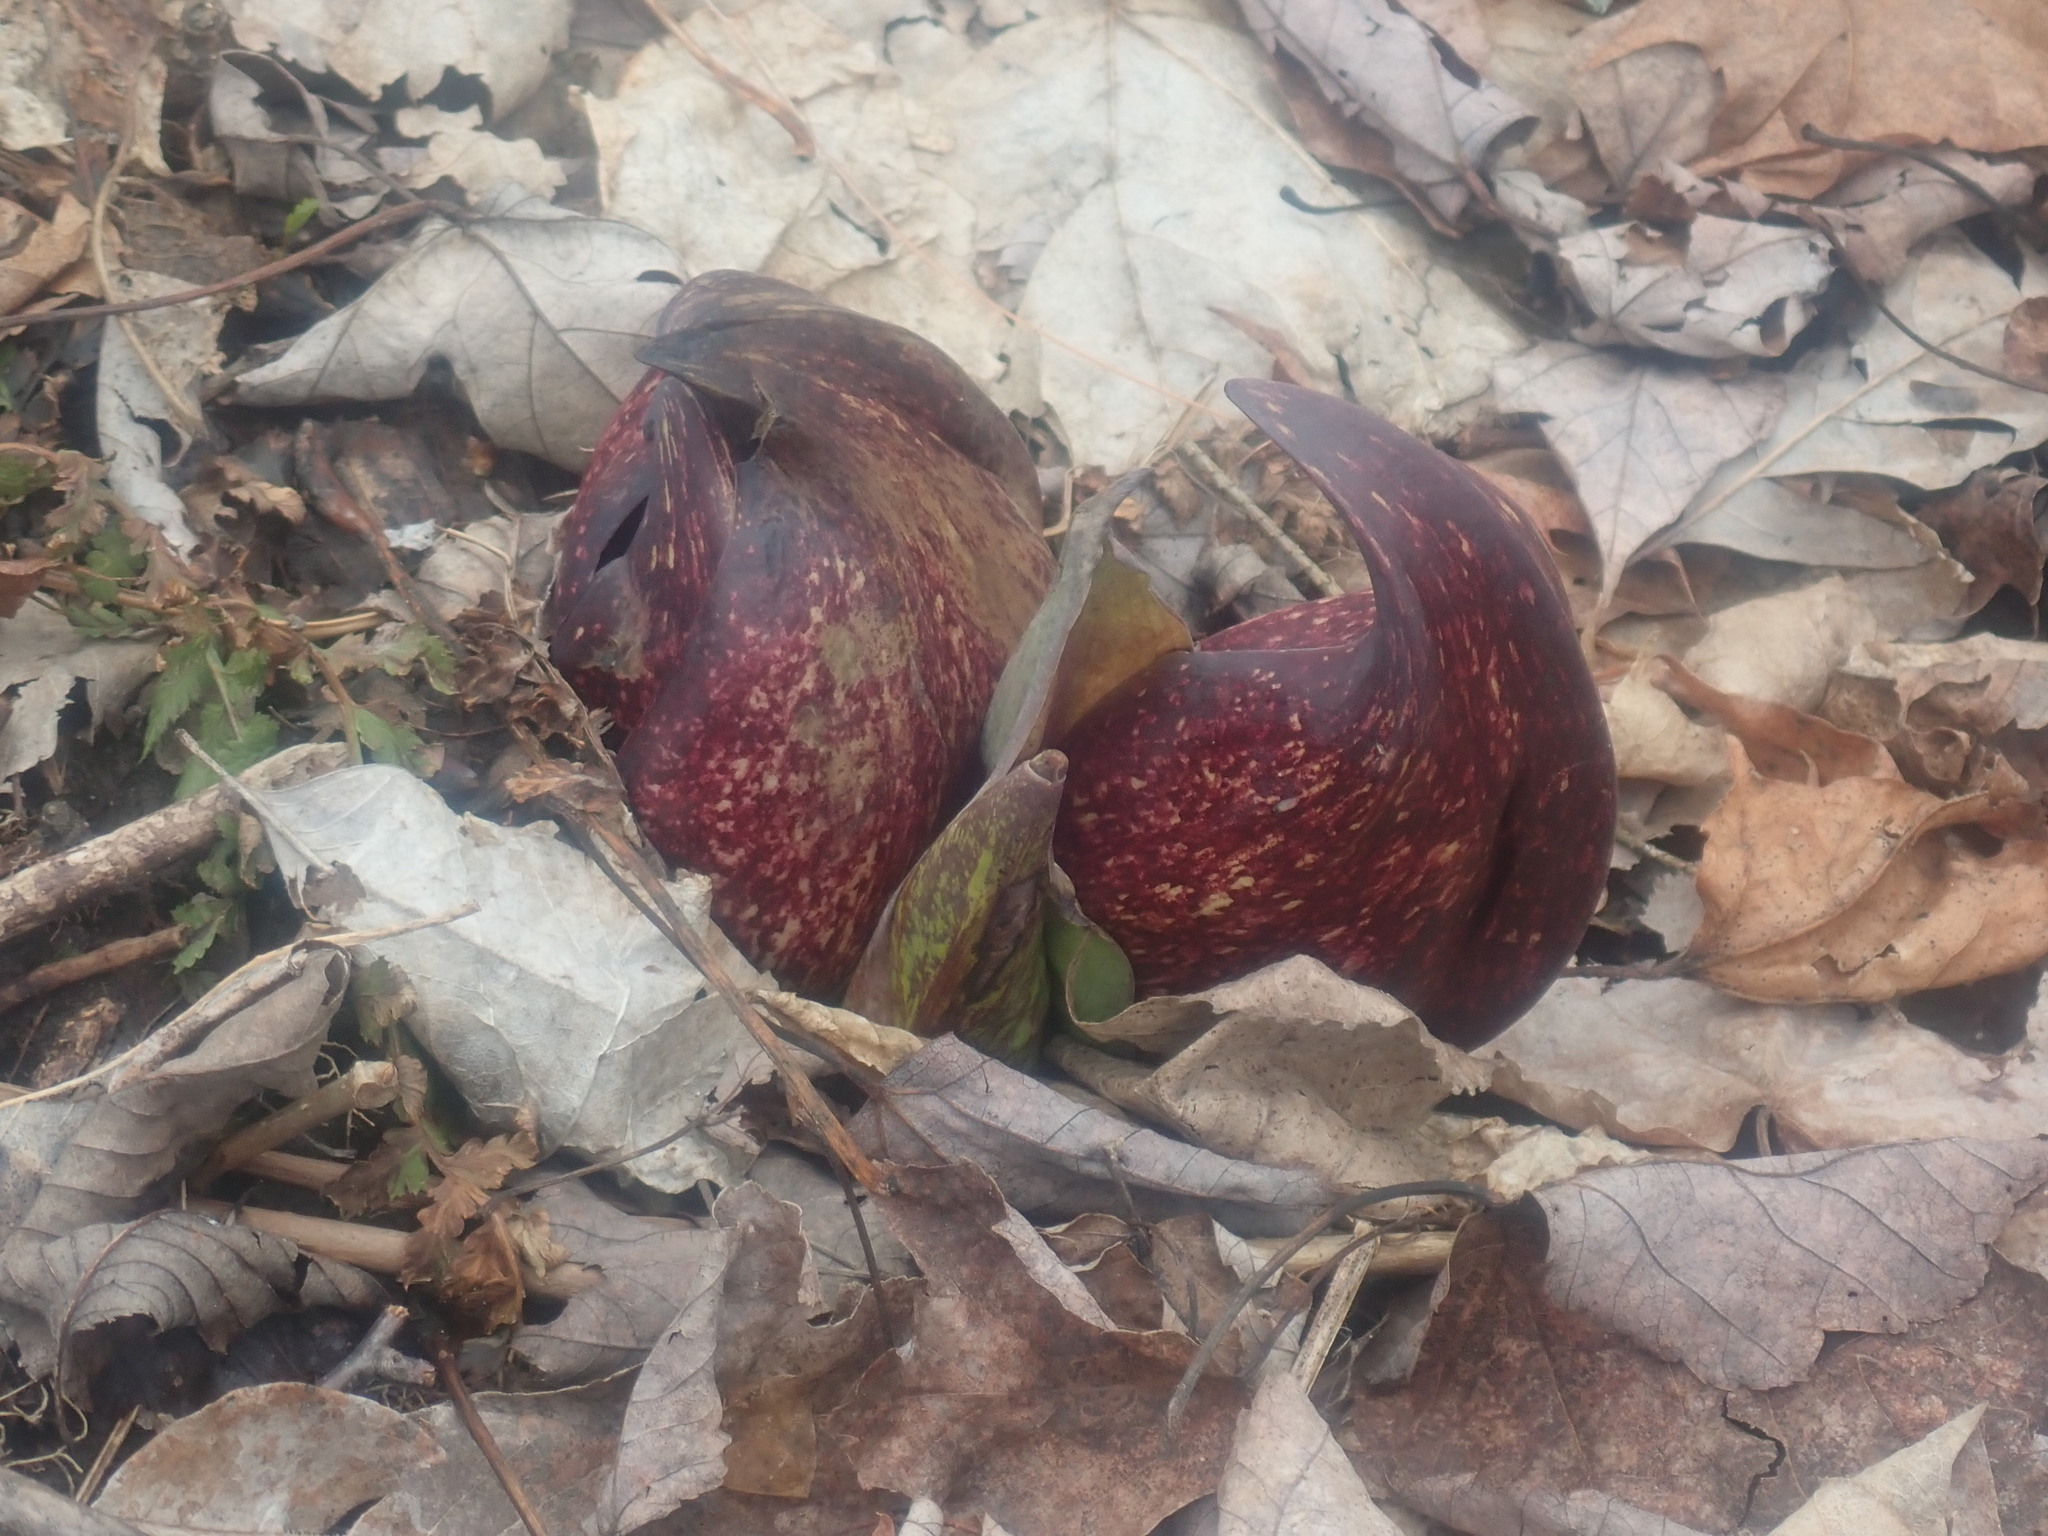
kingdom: Plantae
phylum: Tracheophyta
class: Liliopsida
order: Alismatales
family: Araceae
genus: Symplocarpus
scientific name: Symplocarpus foetidus
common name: Eastern skunk cabbage
